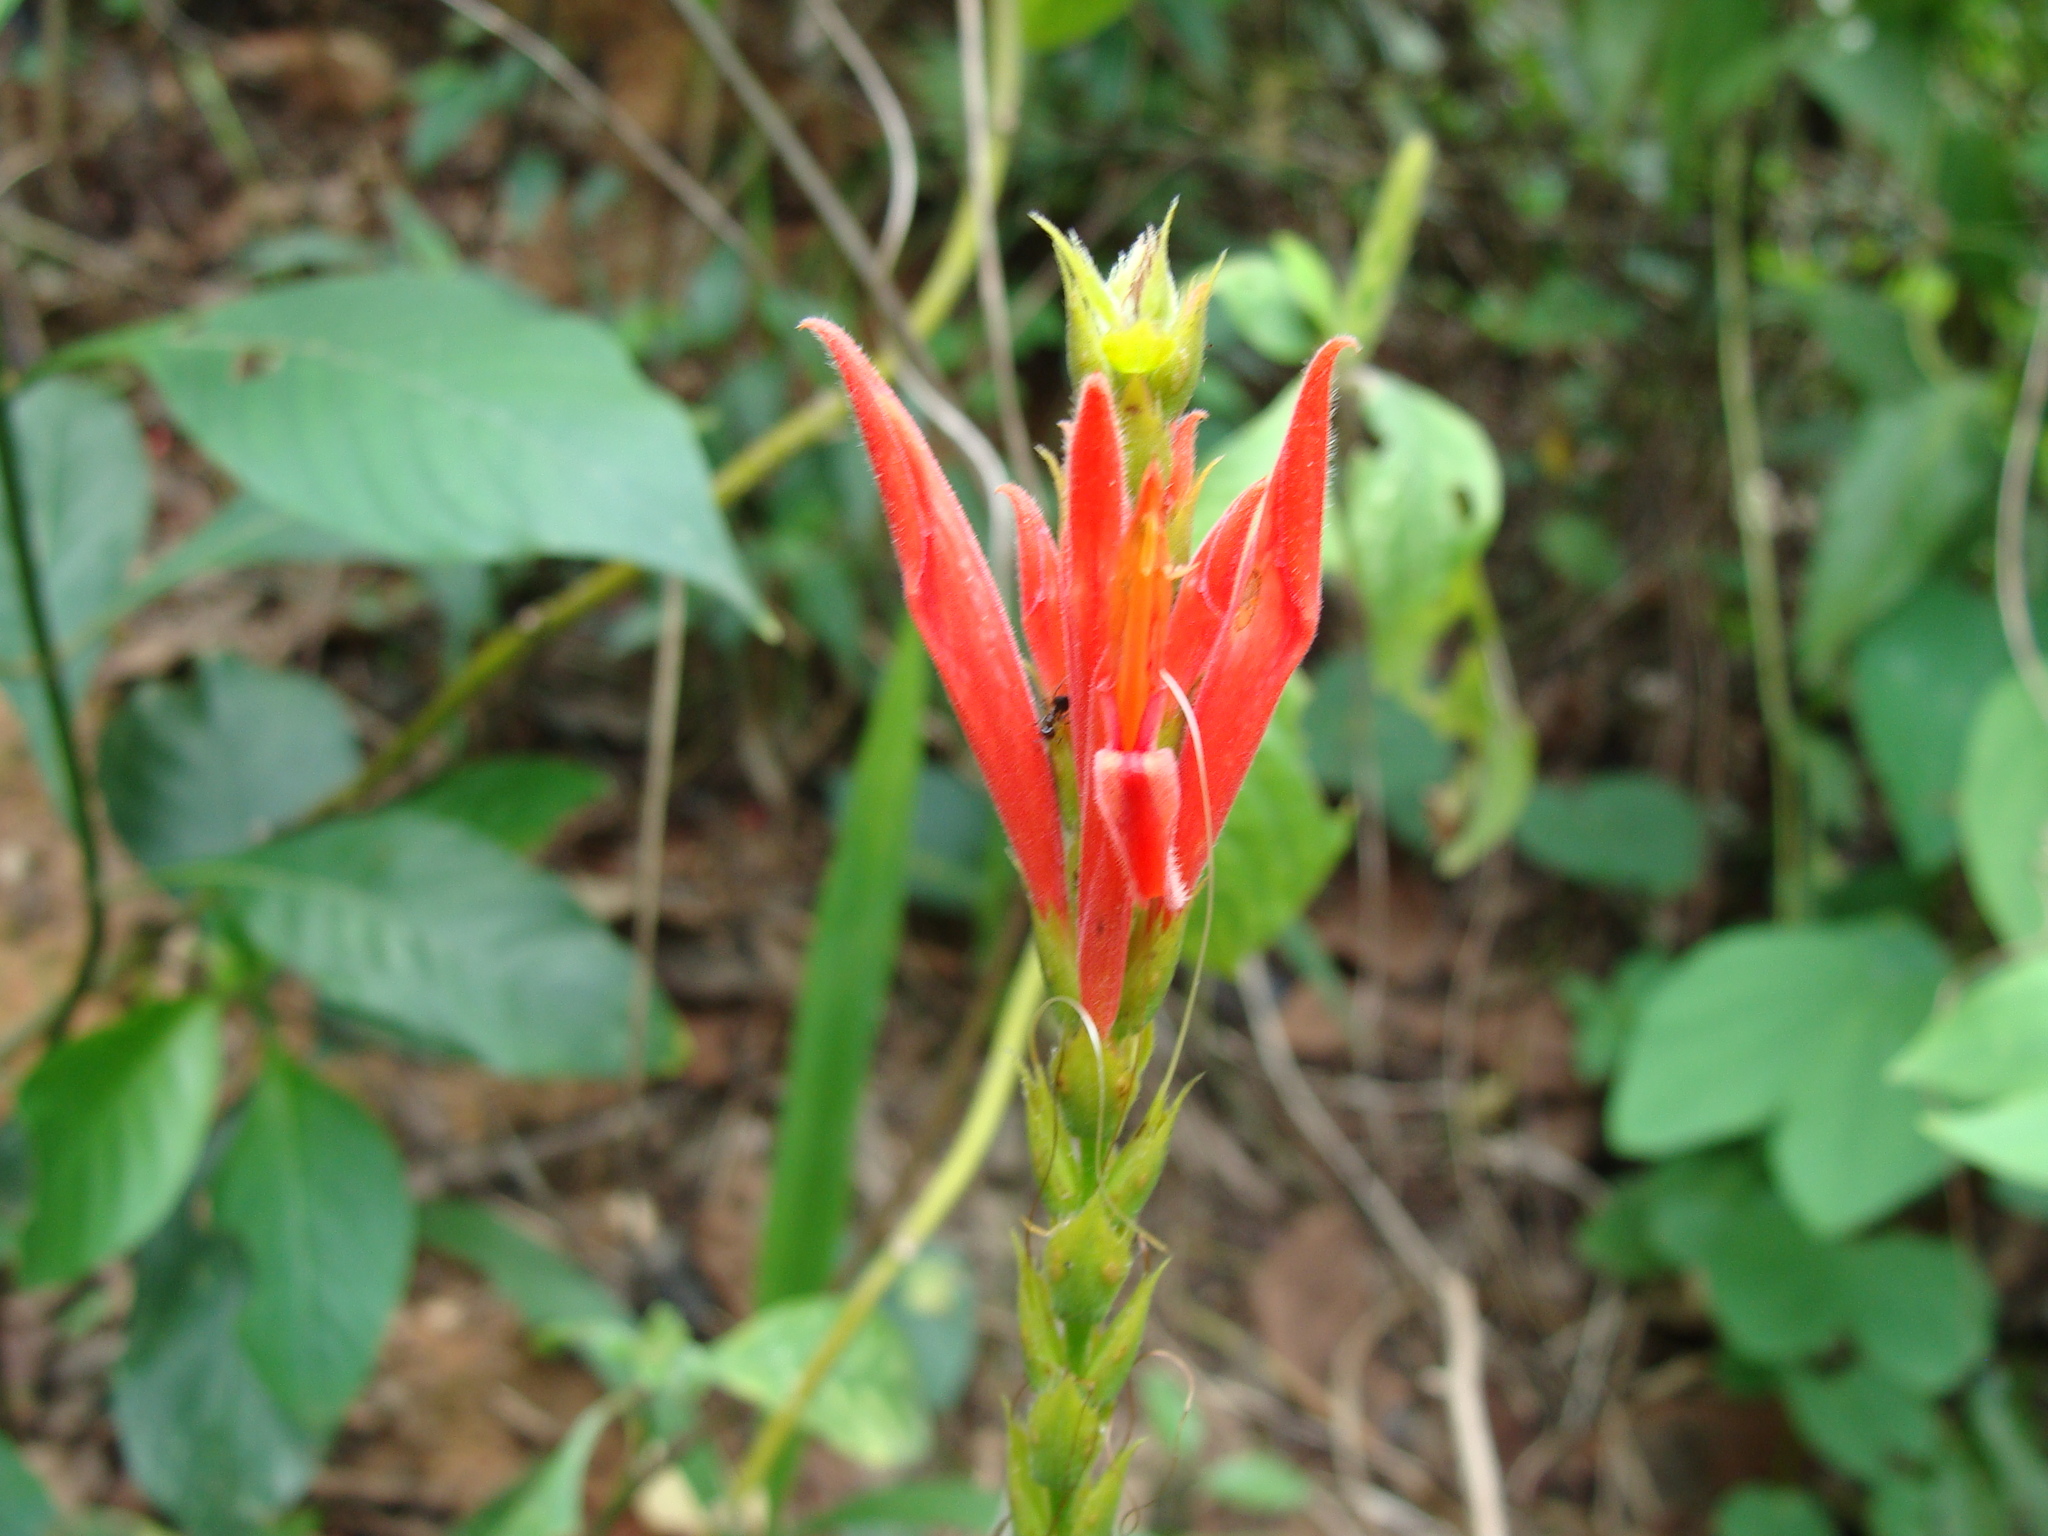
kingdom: Plantae
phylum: Tracheophyta
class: Magnoliopsida
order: Lamiales
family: Acanthaceae
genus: Aphelandra
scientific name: Aphelandra scabra
